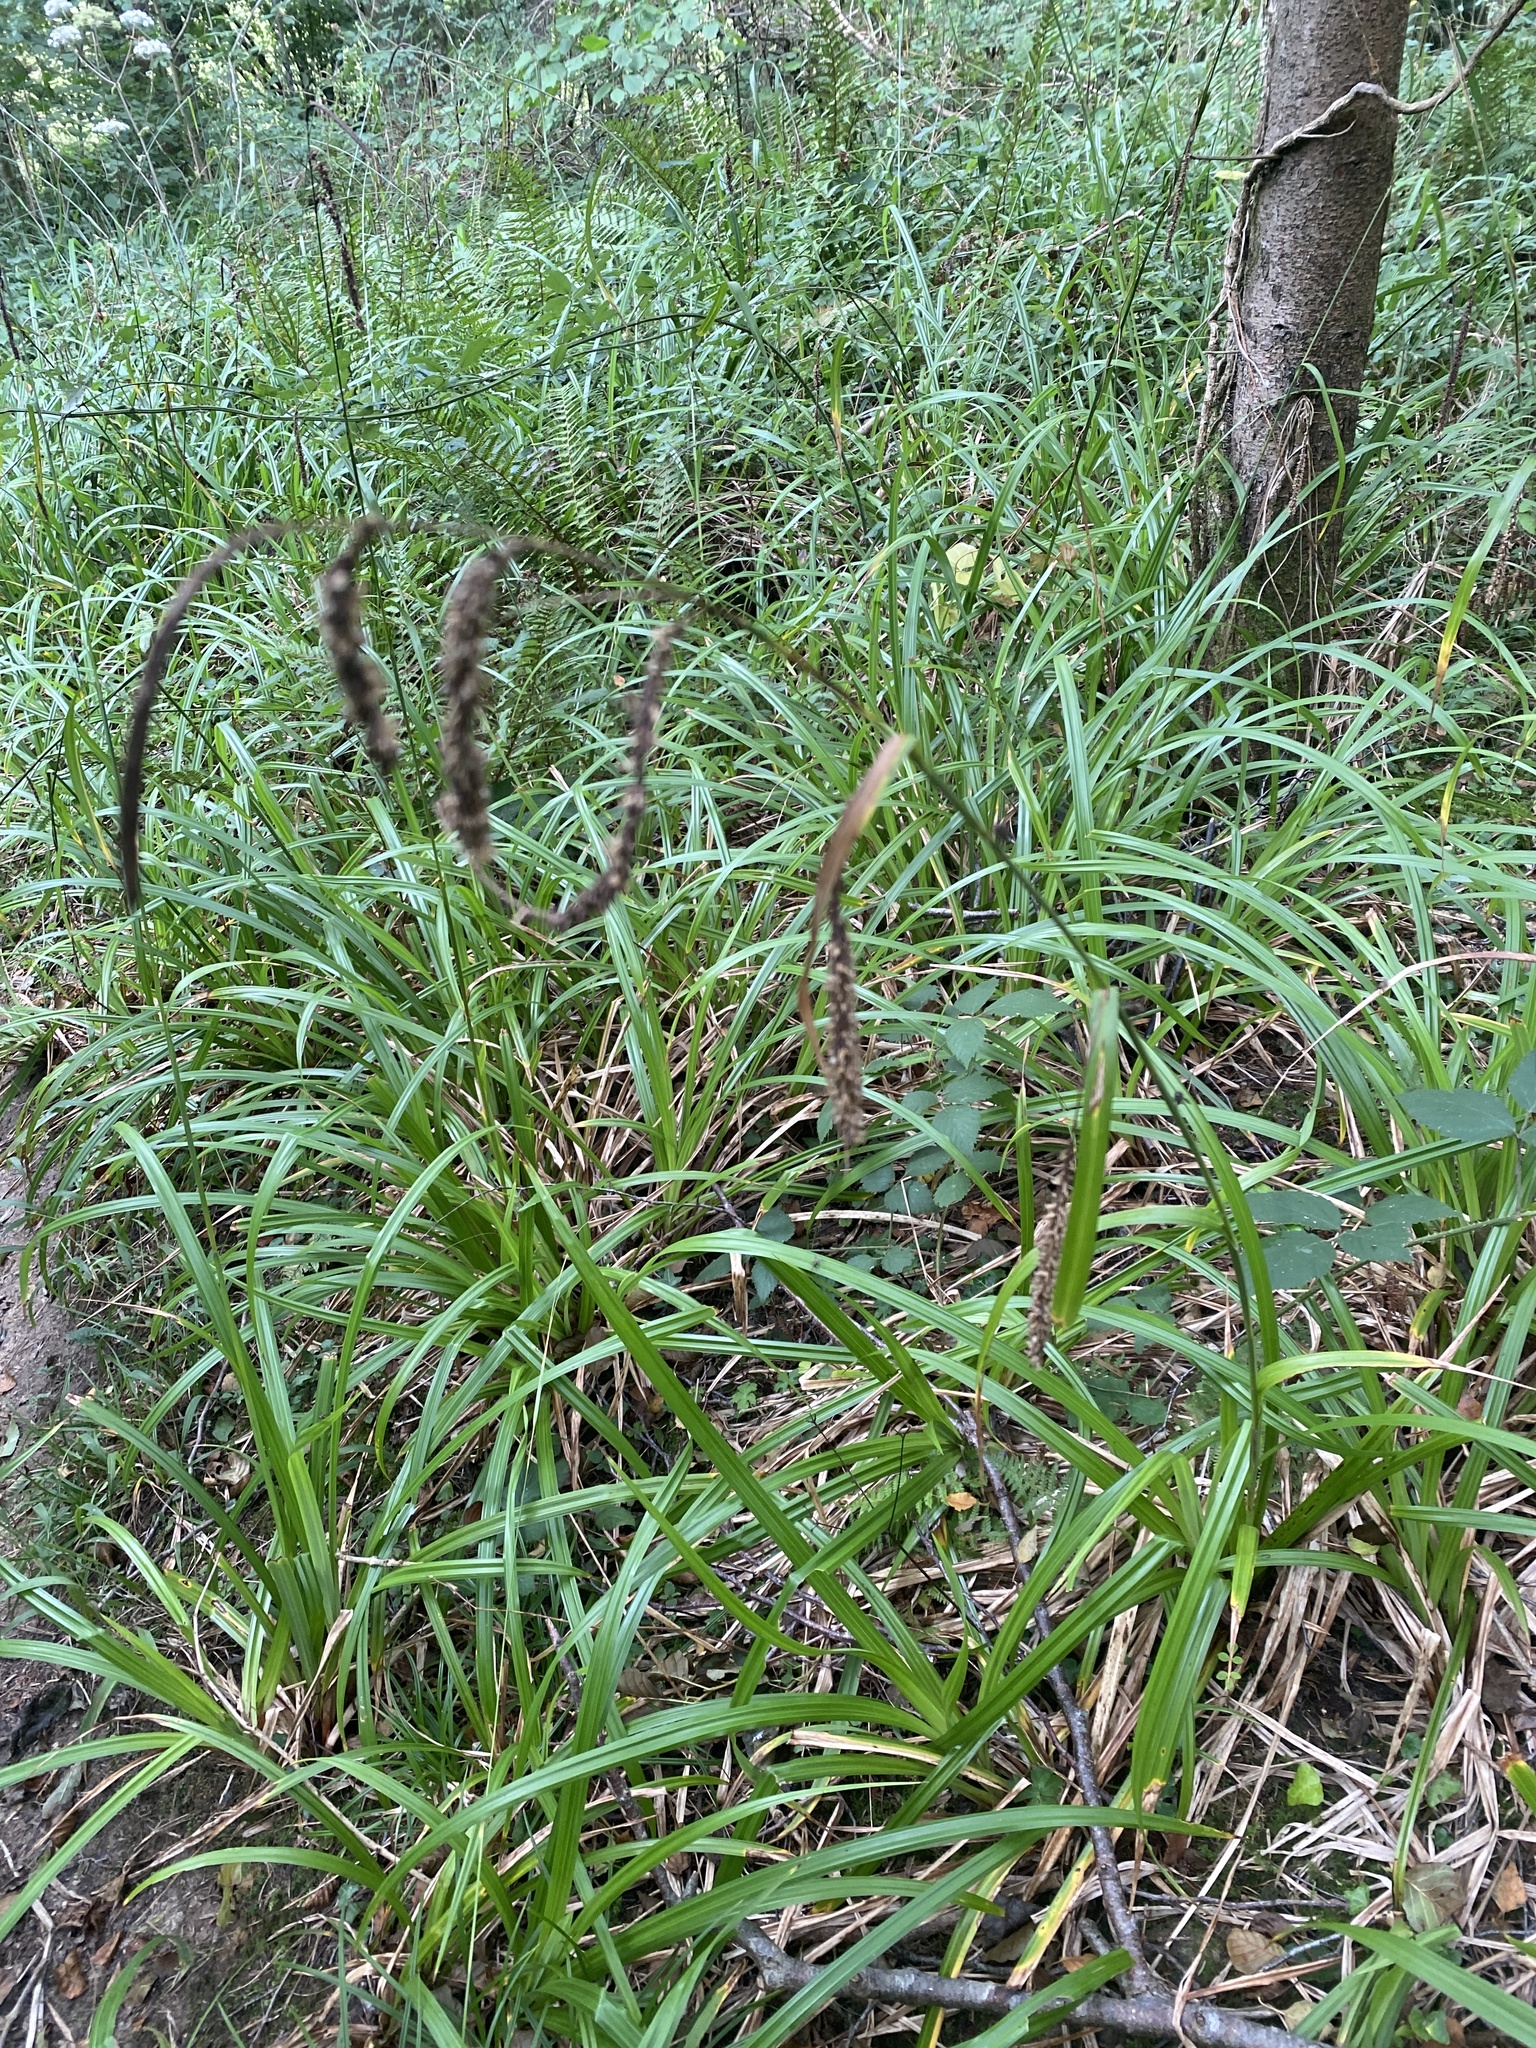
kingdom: Plantae
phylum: Tracheophyta
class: Liliopsida
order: Poales
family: Cyperaceae
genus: Carex
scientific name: Carex pendula
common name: Pendulous sedge
